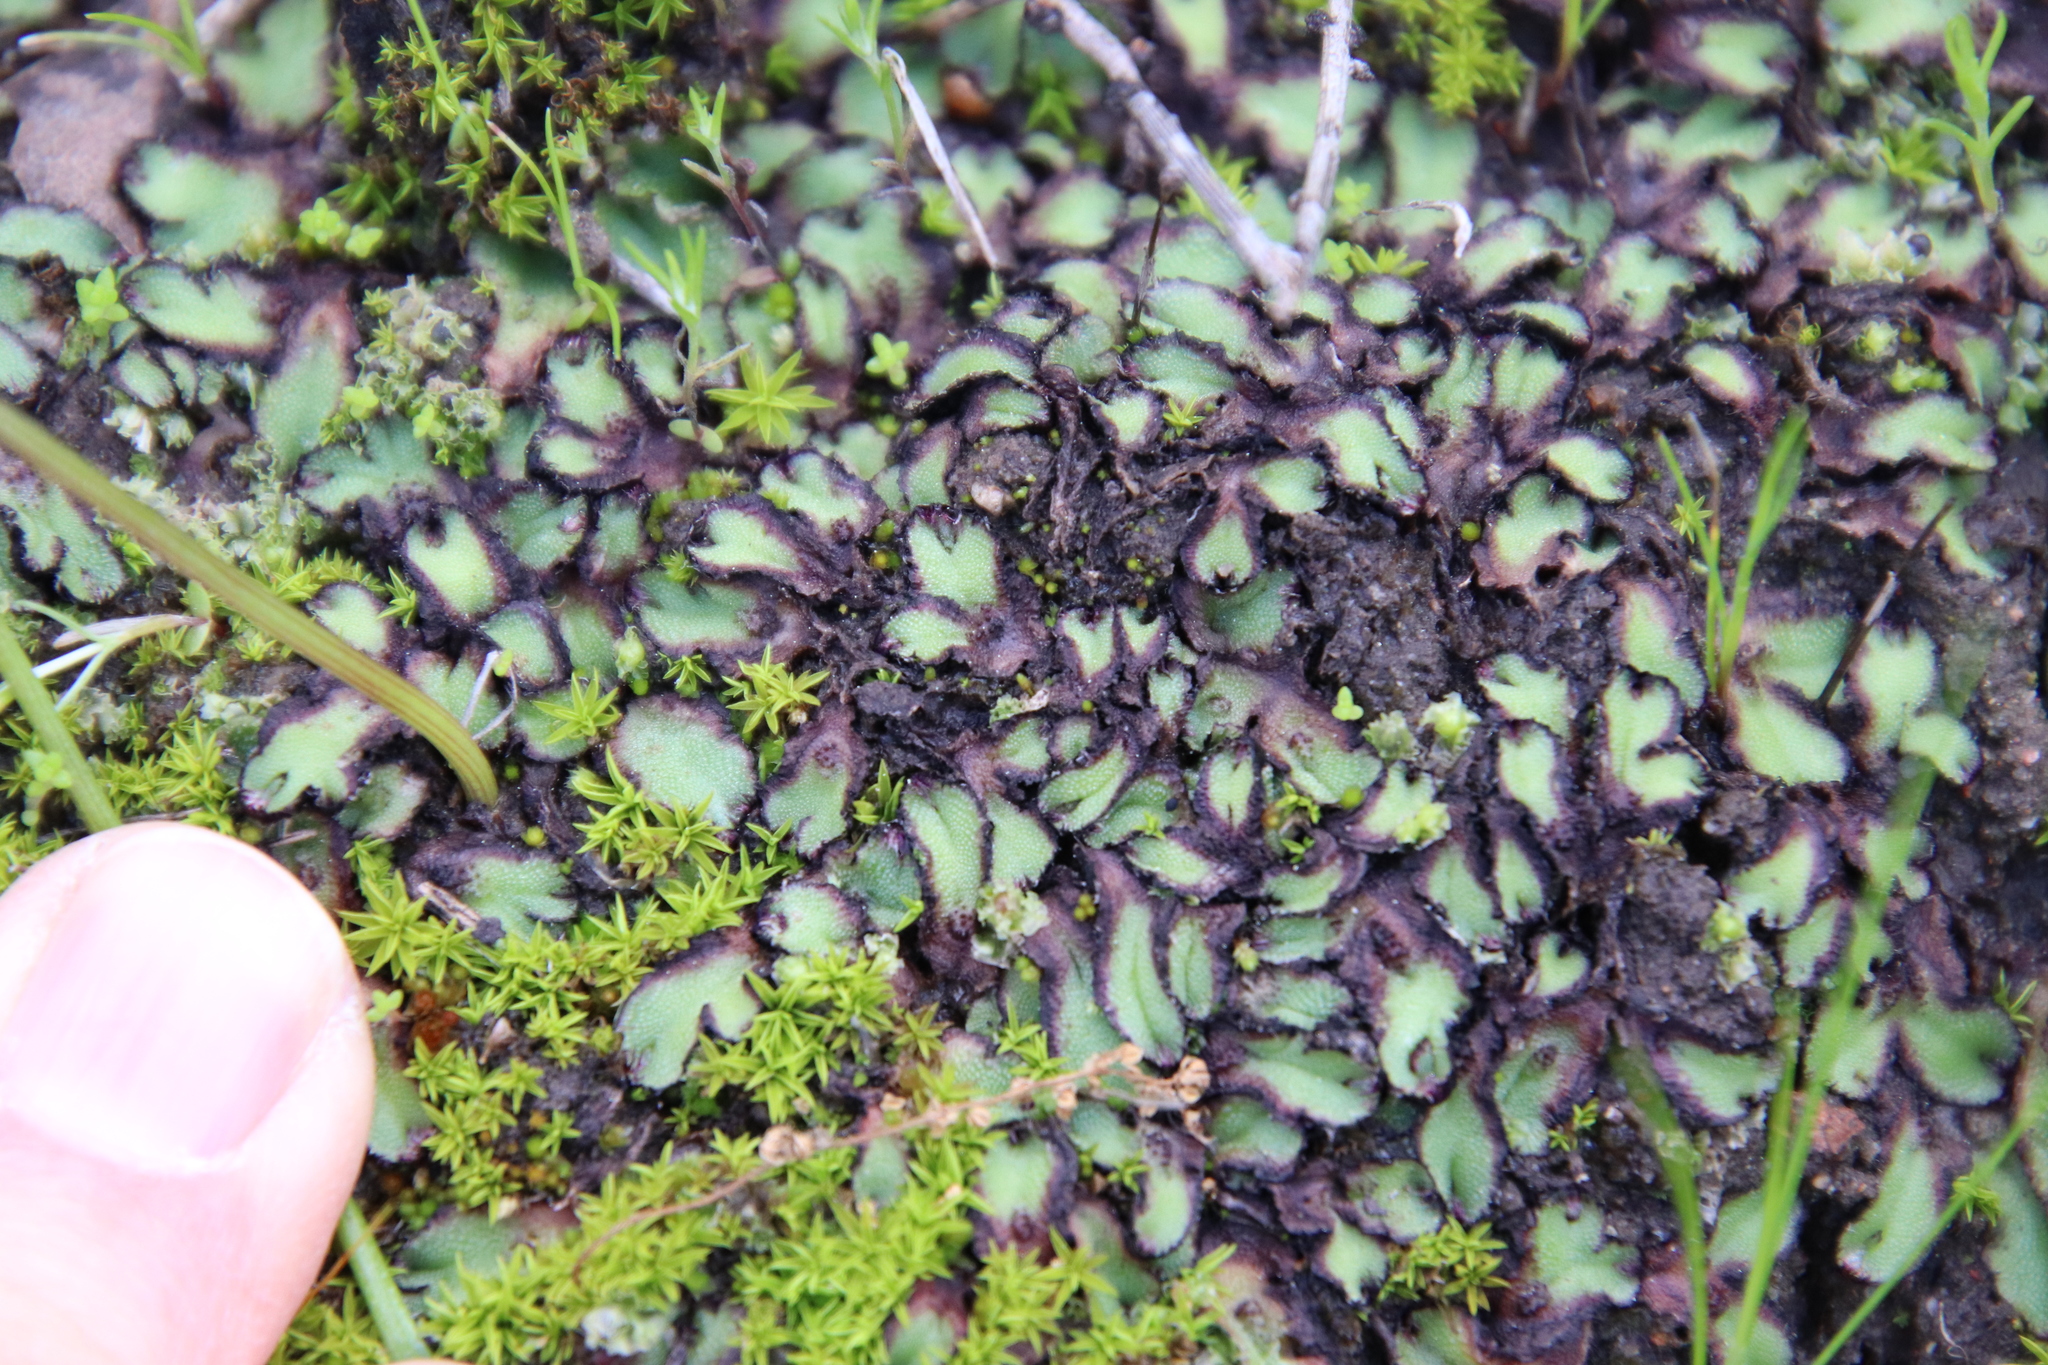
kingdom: Plantae
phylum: Marchantiophyta
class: Marchantiopsida
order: Marchantiales
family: Aytoniaceae
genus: Asterella
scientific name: Asterella californica
